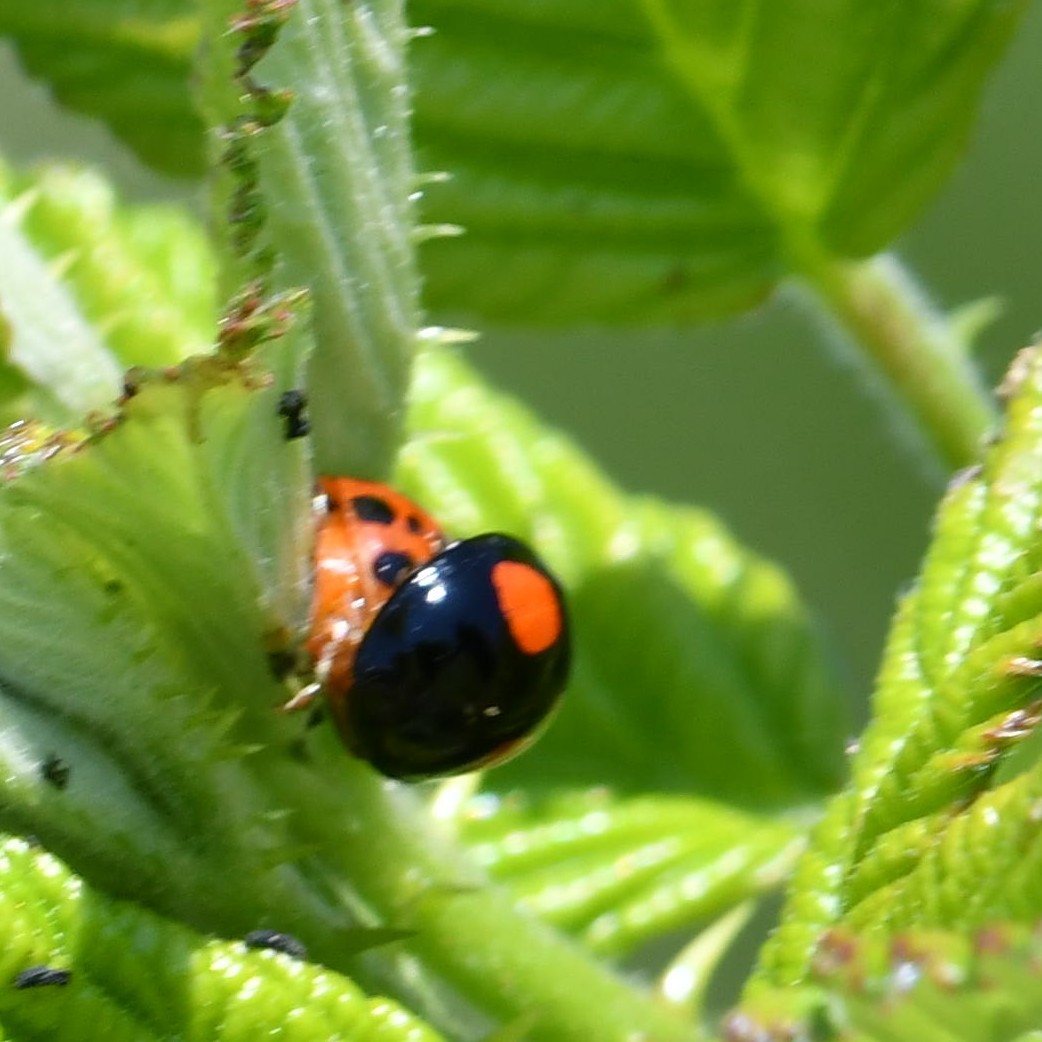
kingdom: Animalia
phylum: Arthropoda
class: Insecta
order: Coleoptera
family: Coccinellidae
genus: Harmonia
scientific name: Harmonia axyridis
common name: Harlequin ladybird
